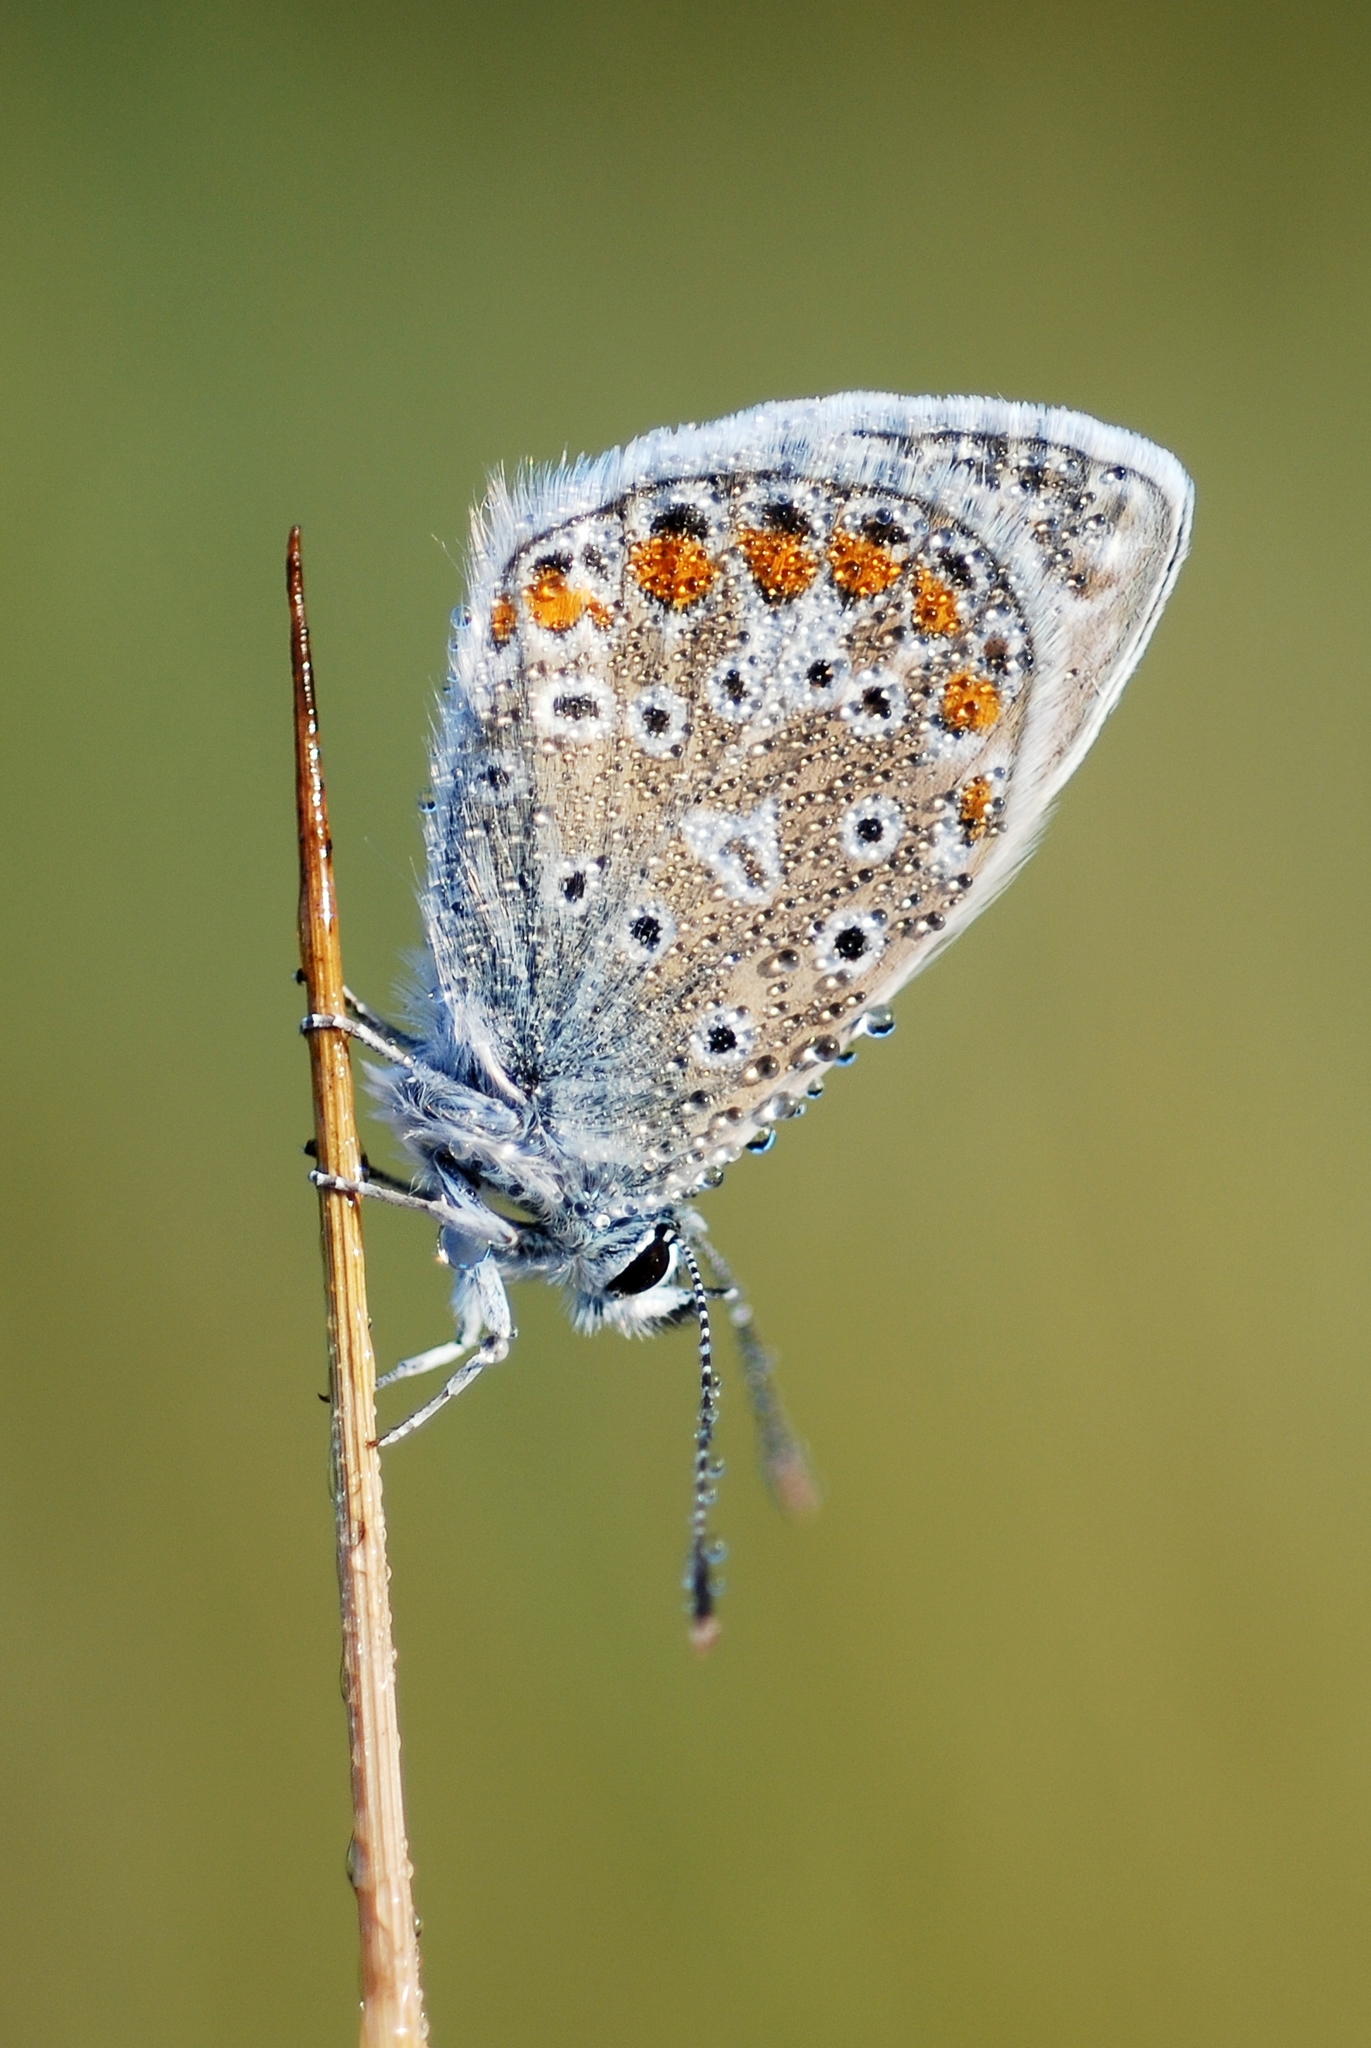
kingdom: Animalia
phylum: Arthropoda
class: Insecta
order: Lepidoptera
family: Lycaenidae
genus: Polyommatus
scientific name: Polyommatus icarus
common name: Common blue
